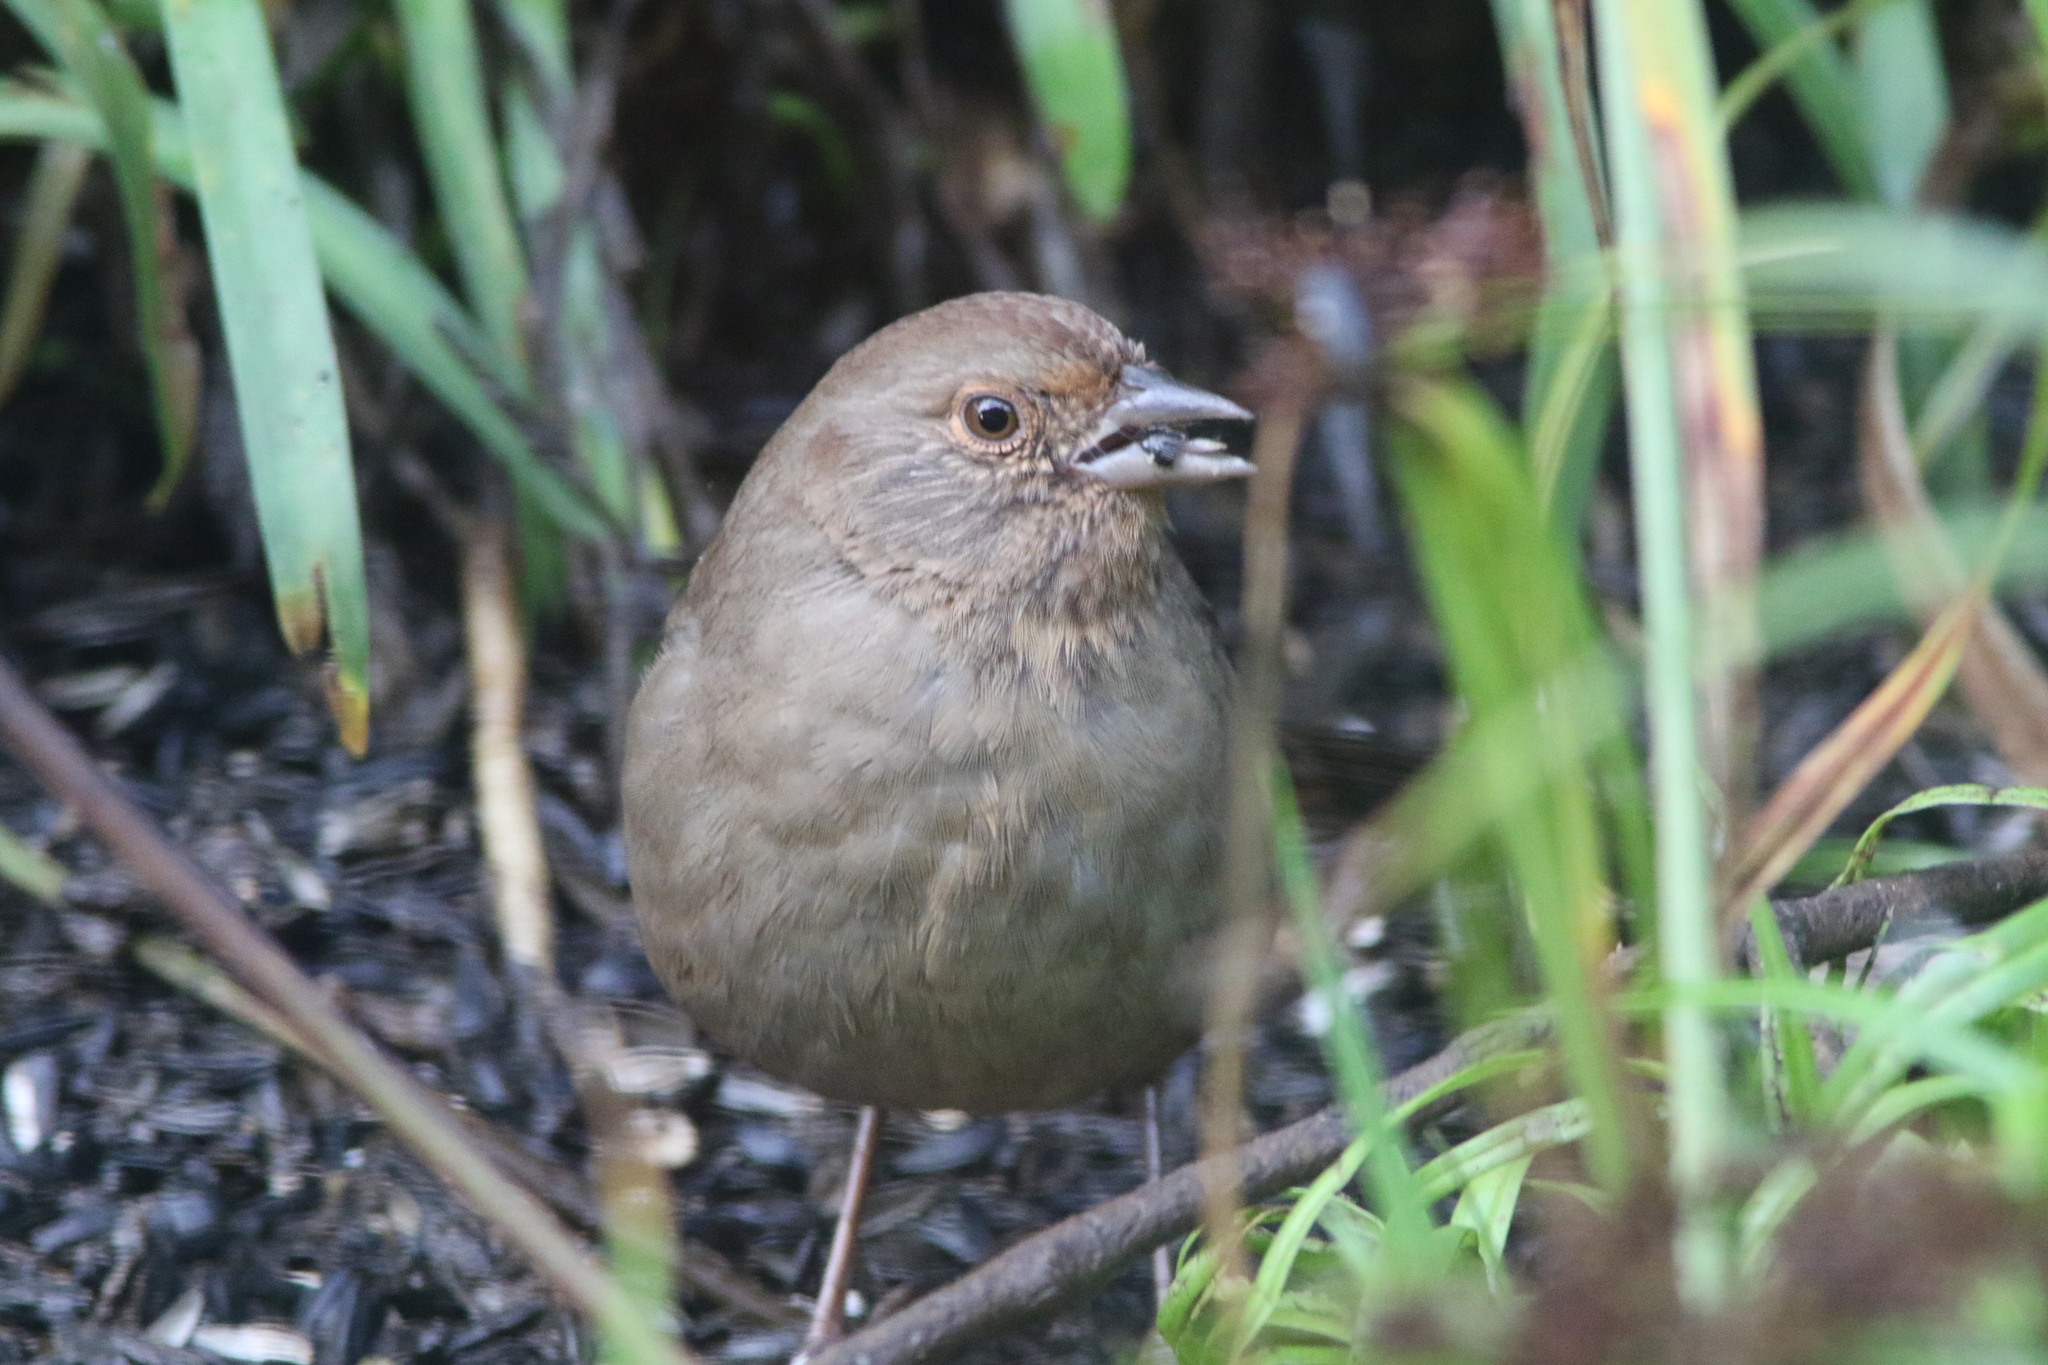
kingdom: Animalia
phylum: Chordata
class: Aves
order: Passeriformes
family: Passerellidae
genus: Melozone
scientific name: Melozone crissalis
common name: California towhee
